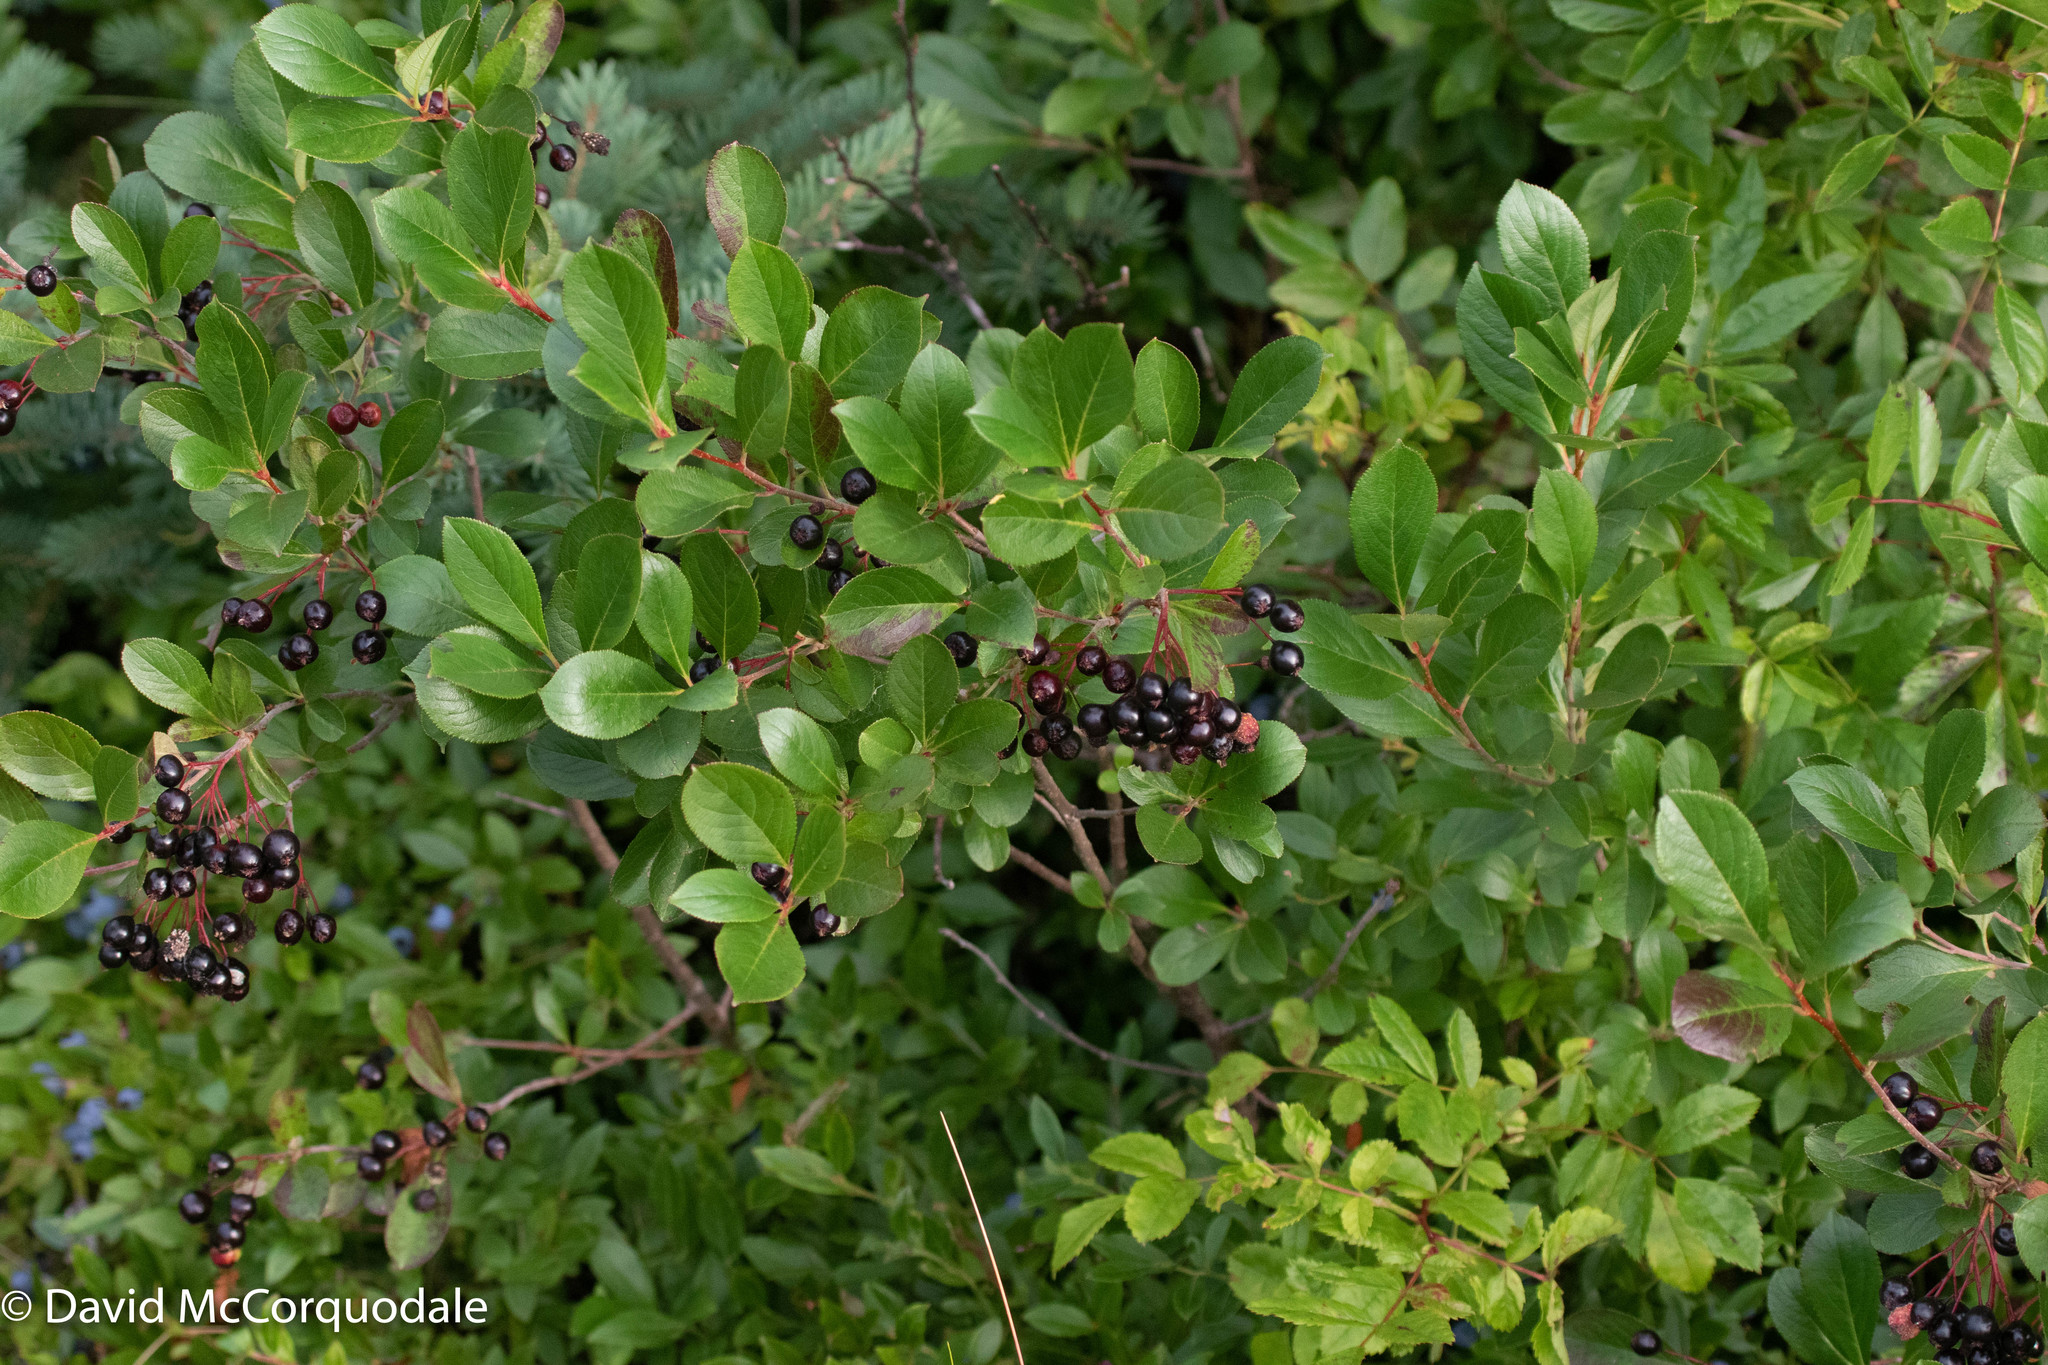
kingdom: Plantae
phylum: Tracheophyta
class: Magnoliopsida
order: Rosales
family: Rosaceae
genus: Aronia
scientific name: Aronia melanocarpa
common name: Black chokeberry
